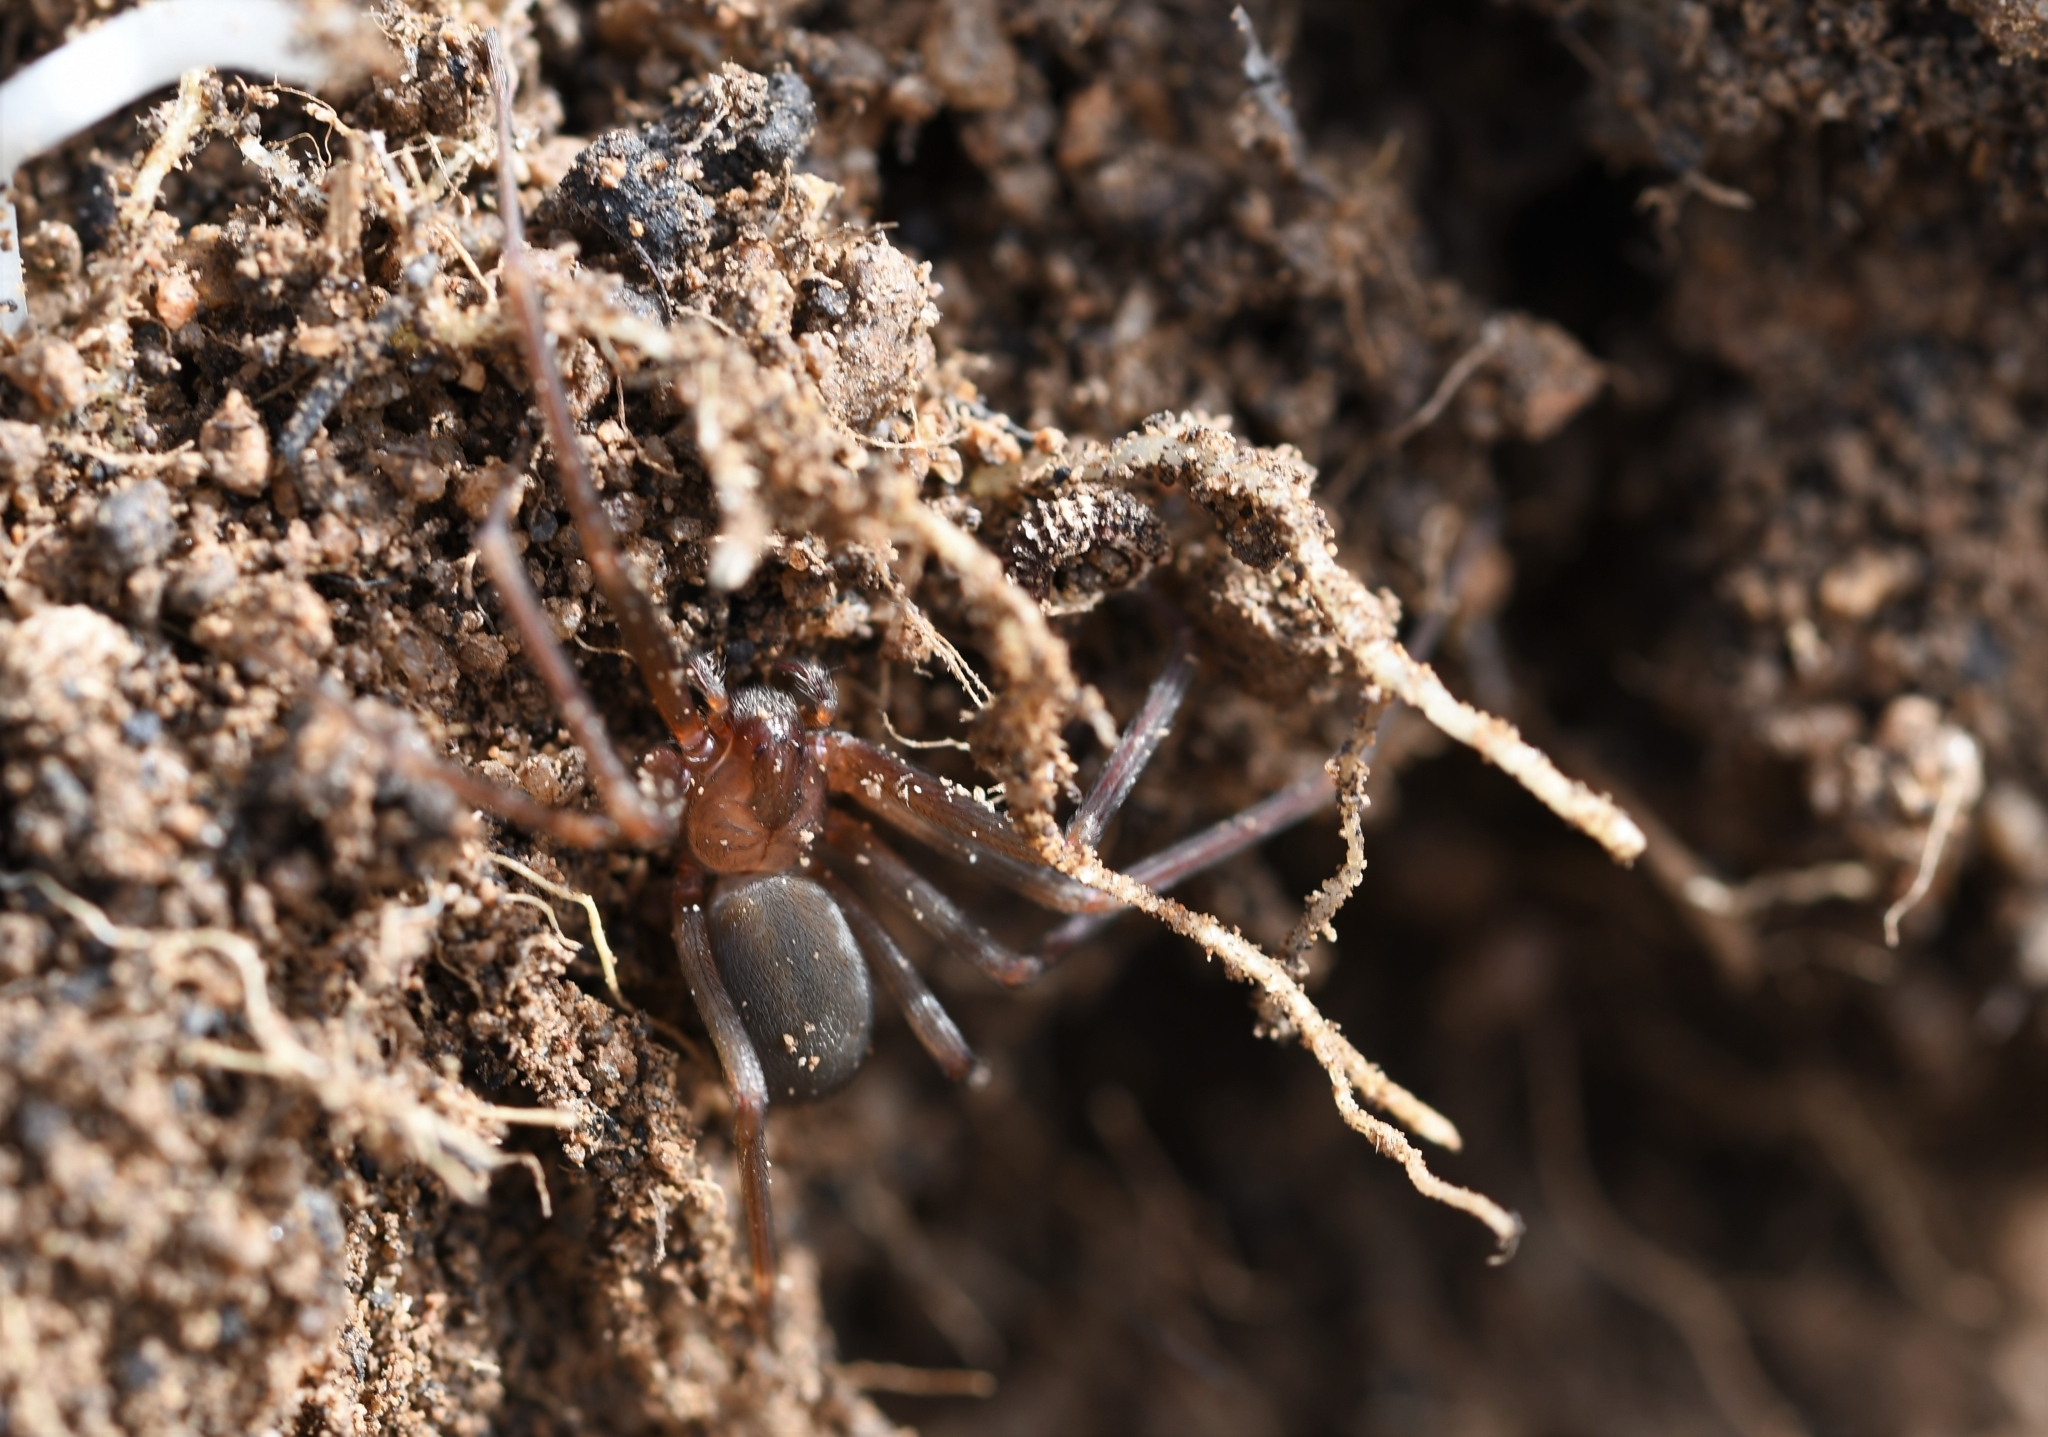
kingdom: Animalia
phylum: Arthropoda
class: Arachnida
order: Araneae
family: Sicariidae
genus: Loxosceles
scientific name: Loxosceles rufescens
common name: Mediterranean recluse spider
